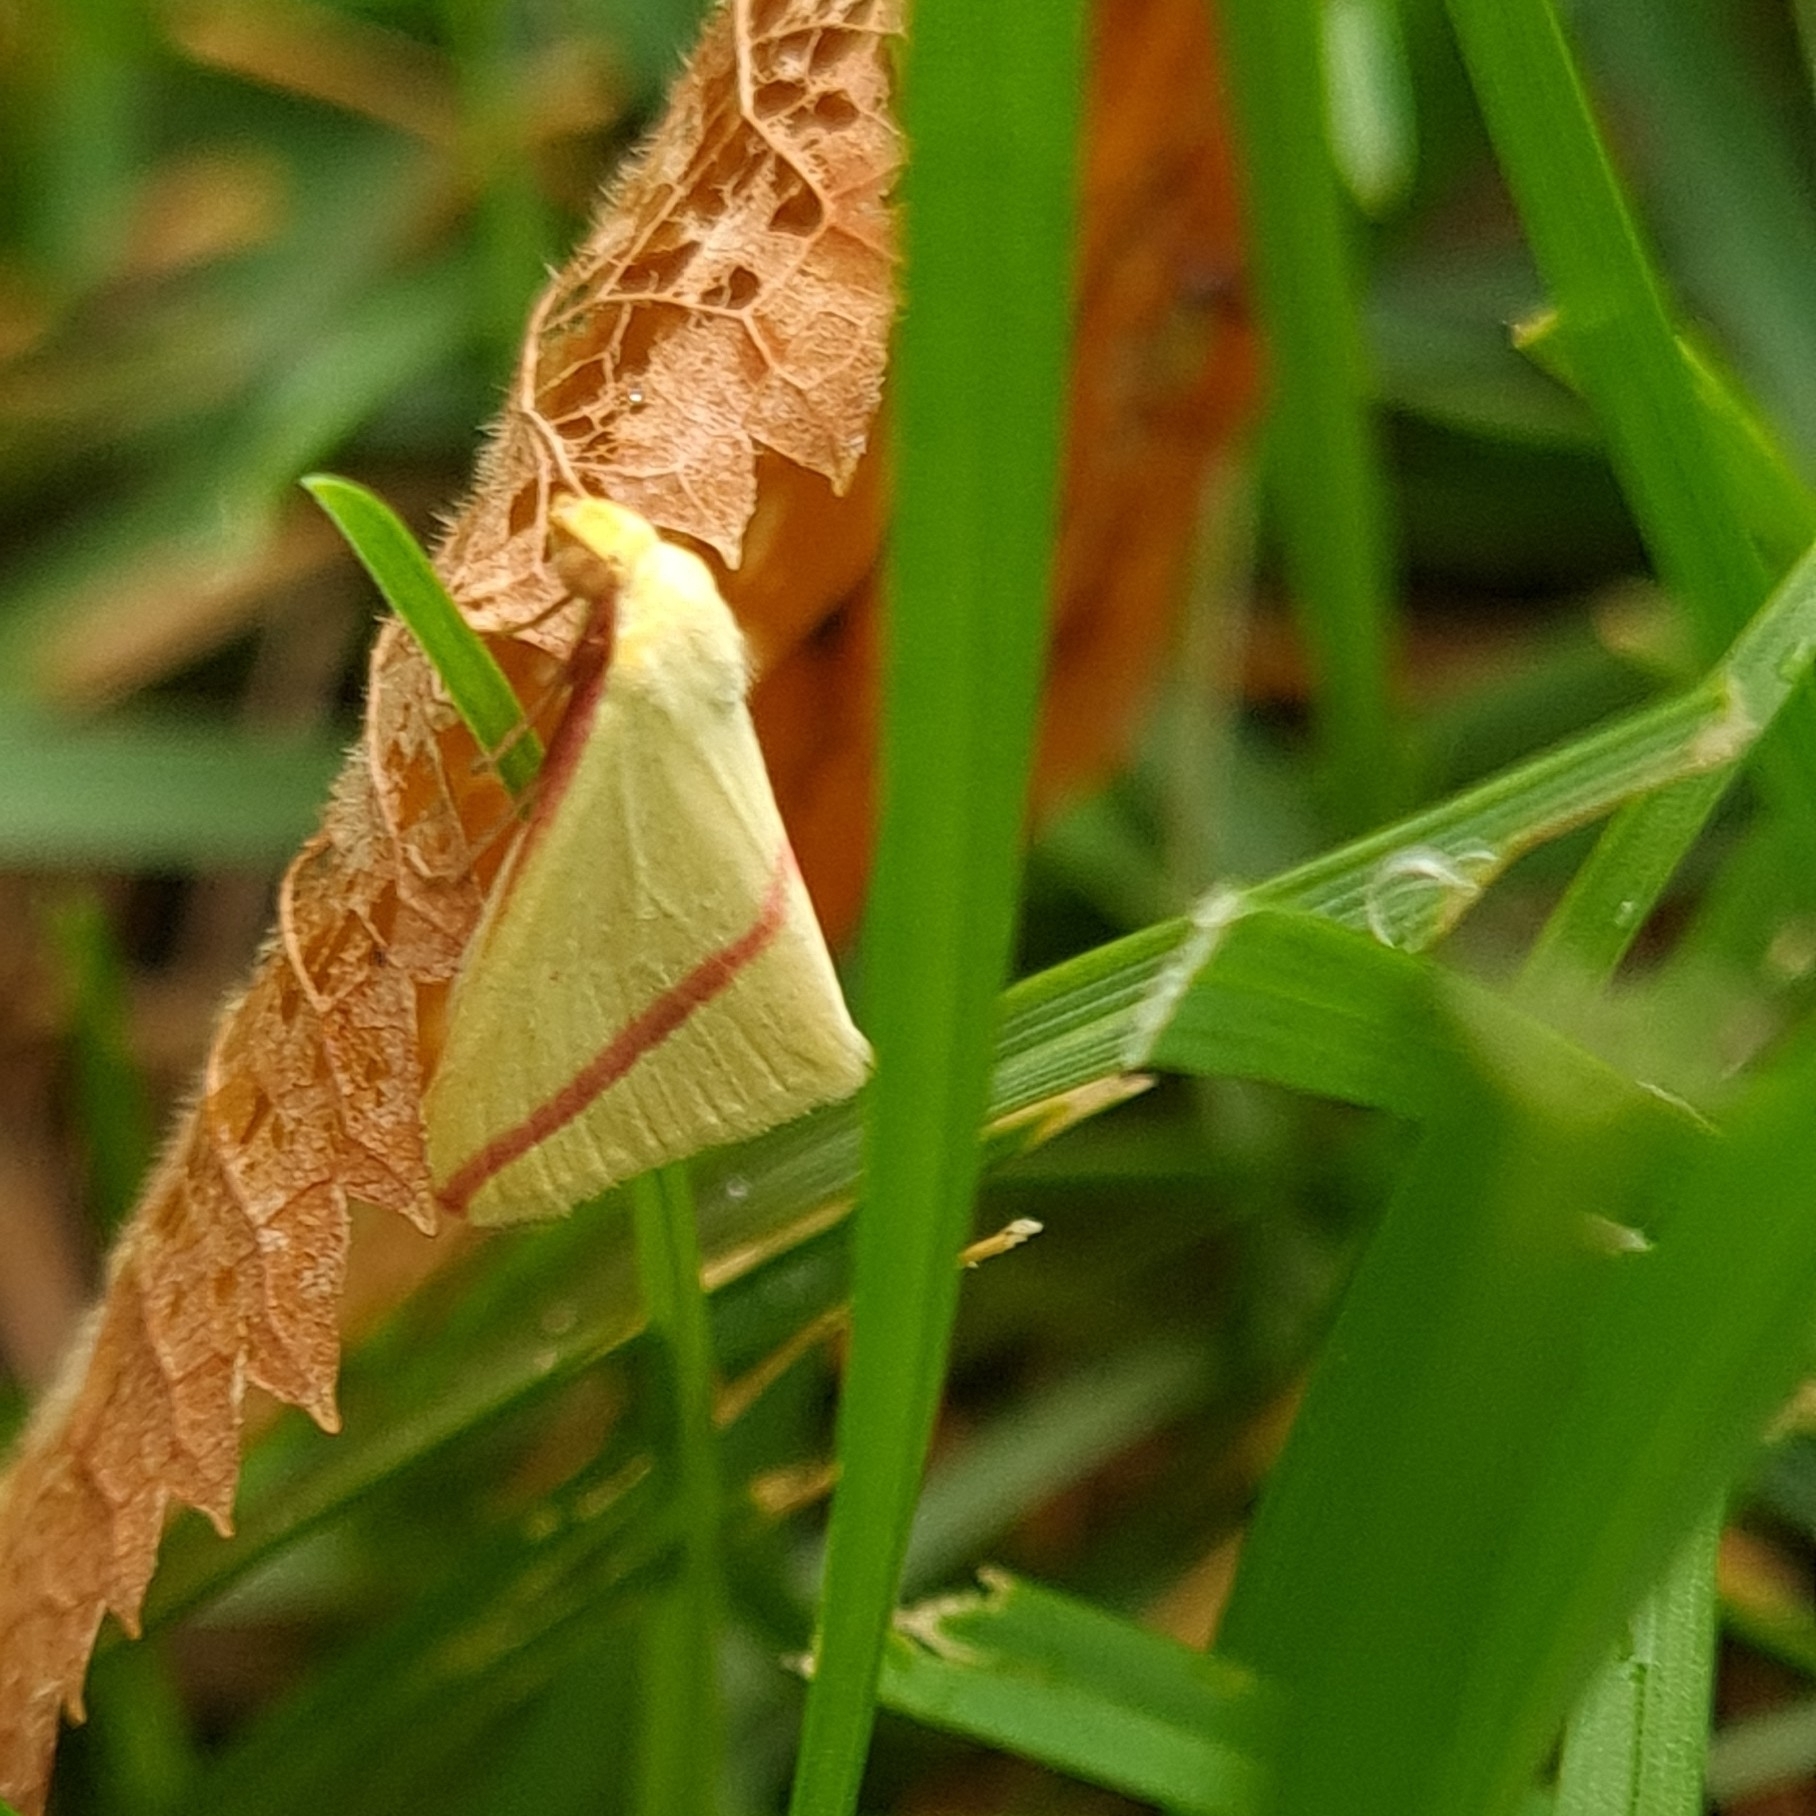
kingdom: Animalia
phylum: Arthropoda
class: Insecta
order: Lepidoptera
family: Geometridae
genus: Rhodometra
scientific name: Rhodometra sacraria
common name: Vestal
